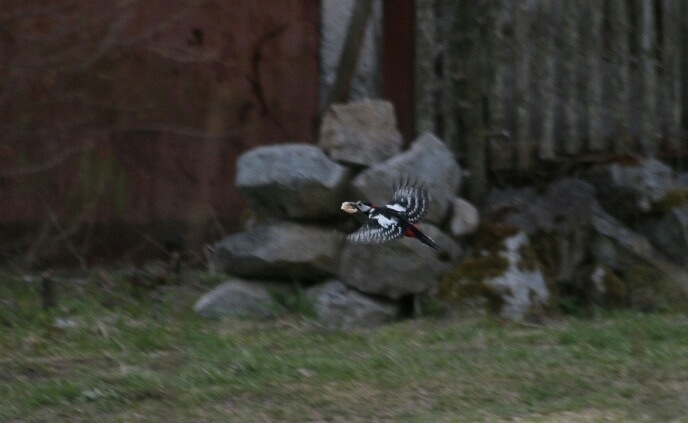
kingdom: Animalia
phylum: Chordata
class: Aves
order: Piciformes
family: Picidae
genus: Dendrocopos
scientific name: Dendrocopos major
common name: Great spotted woodpecker
